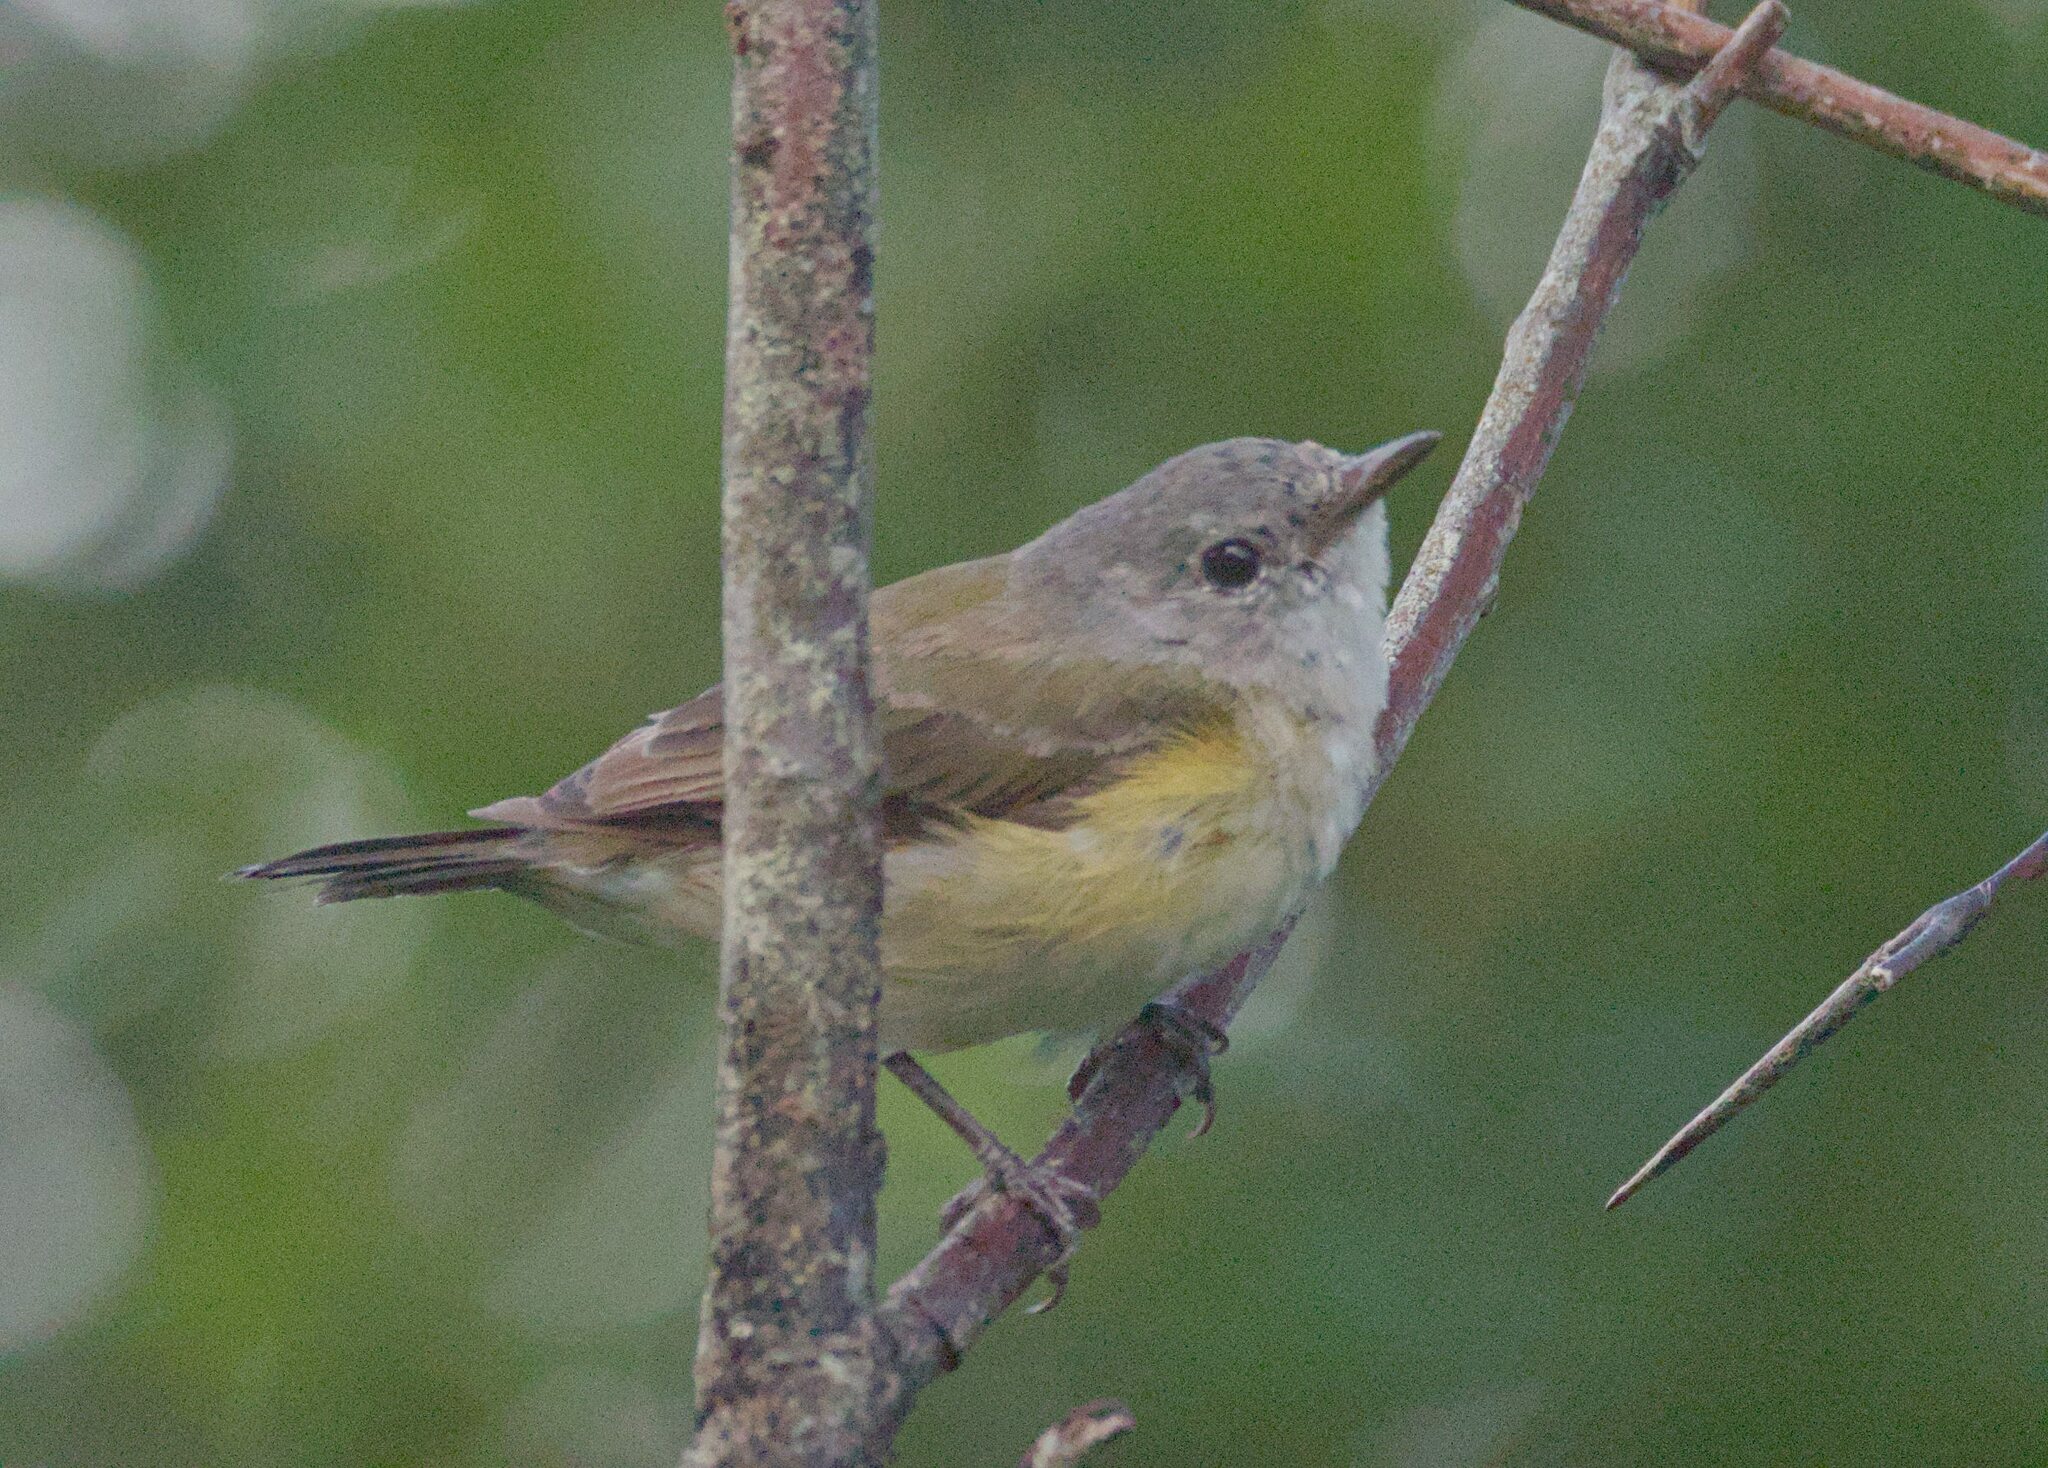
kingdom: Animalia
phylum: Chordata
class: Aves
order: Passeriformes
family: Parulidae
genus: Setophaga
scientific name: Setophaga ruticilla
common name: American redstart
